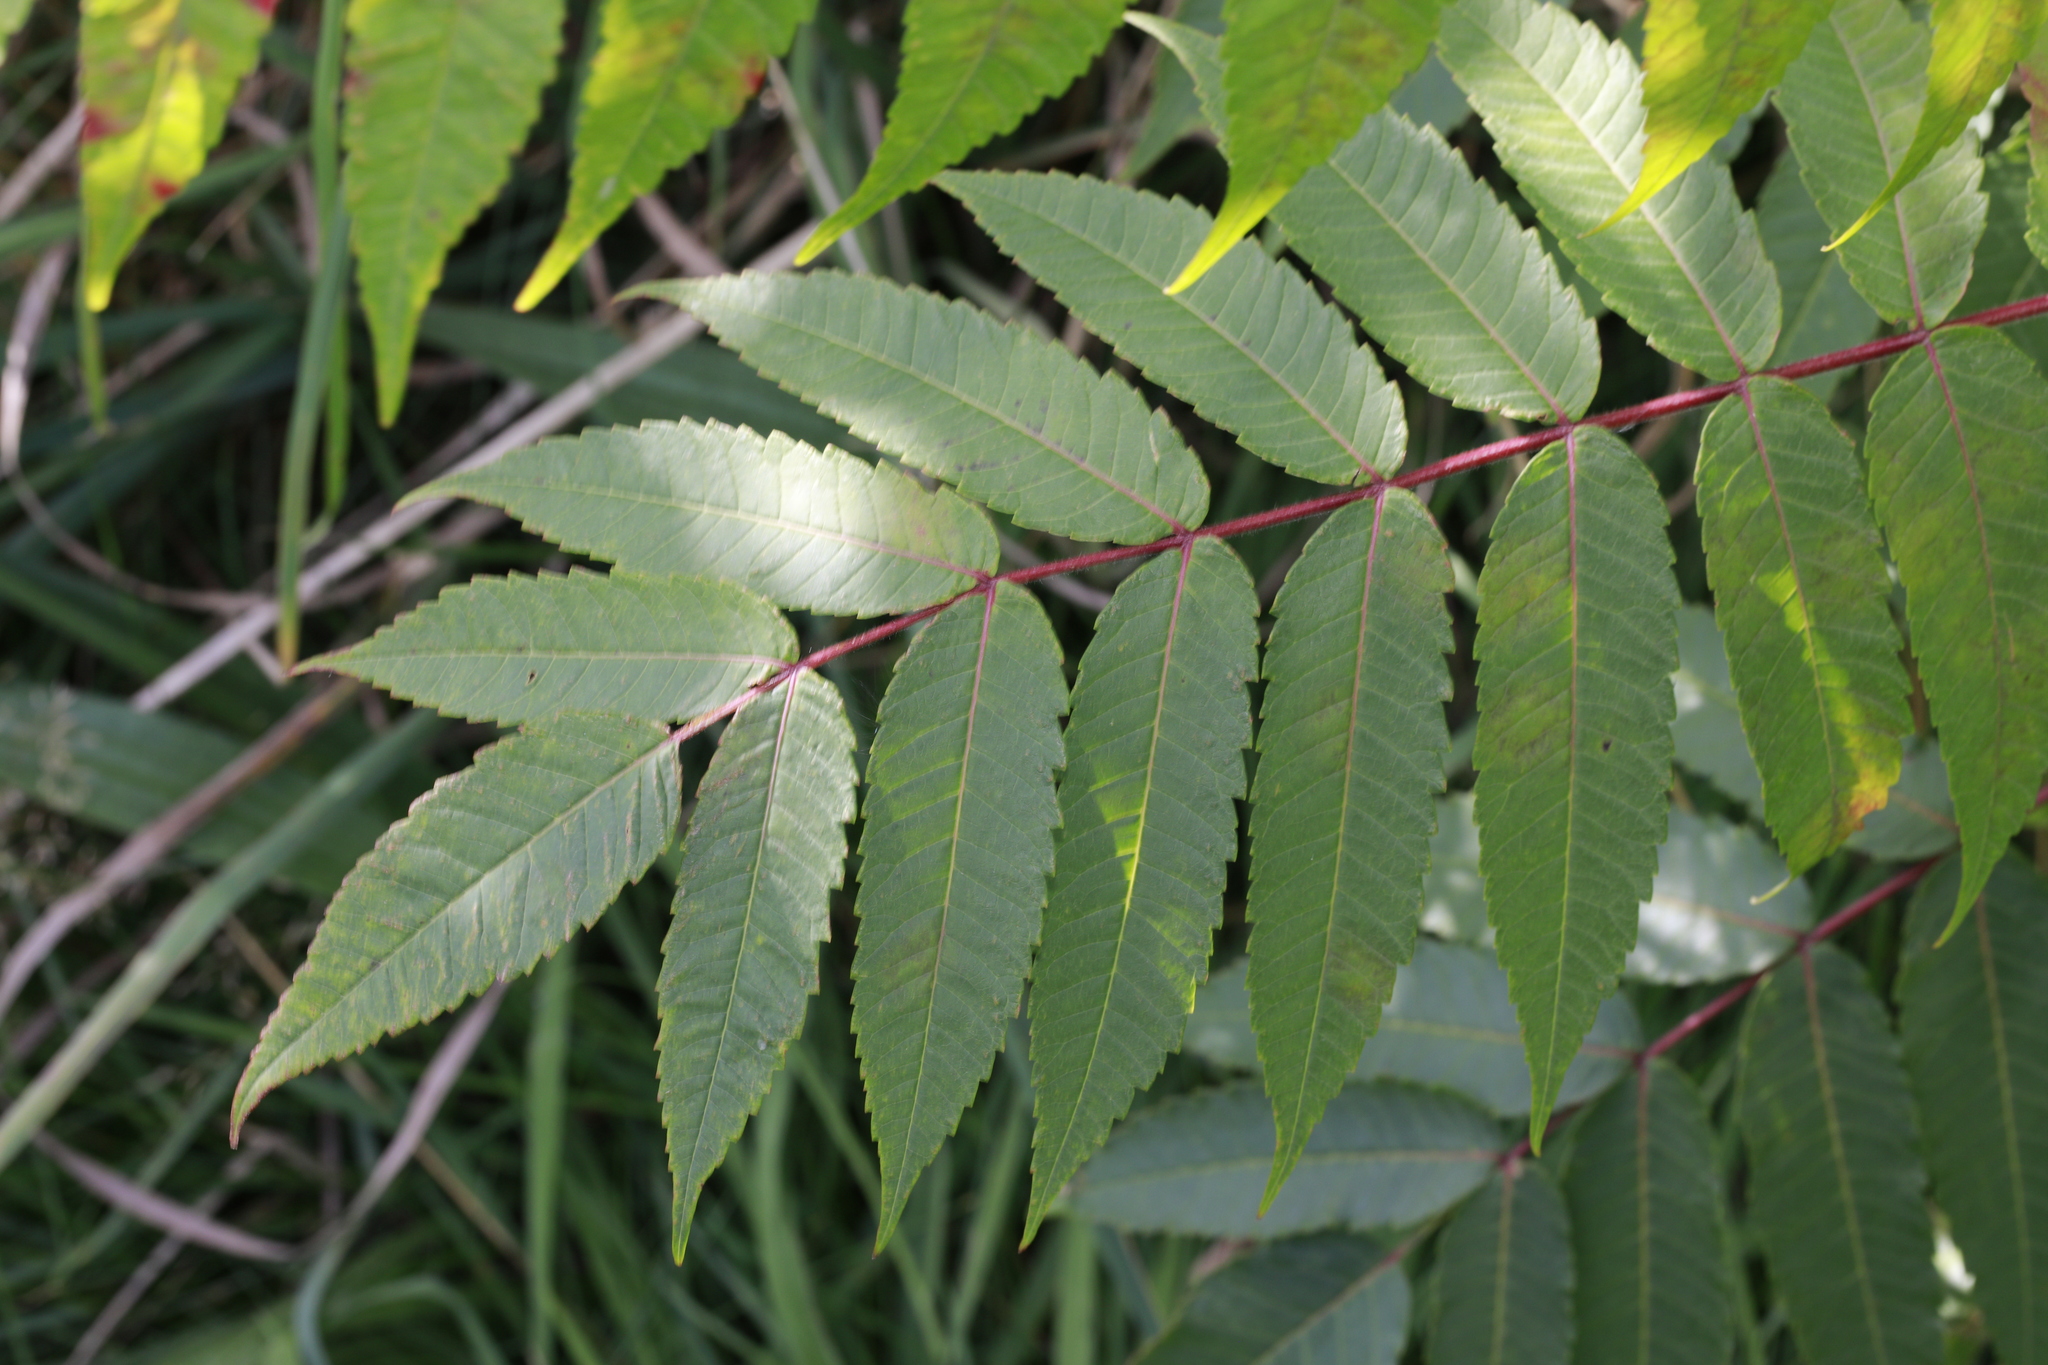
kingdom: Plantae
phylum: Tracheophyta
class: Magnoliopsida
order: Sapindales
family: Anacardiaceae
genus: Rhus
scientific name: Rhus typhina
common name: Staghorn sumac
